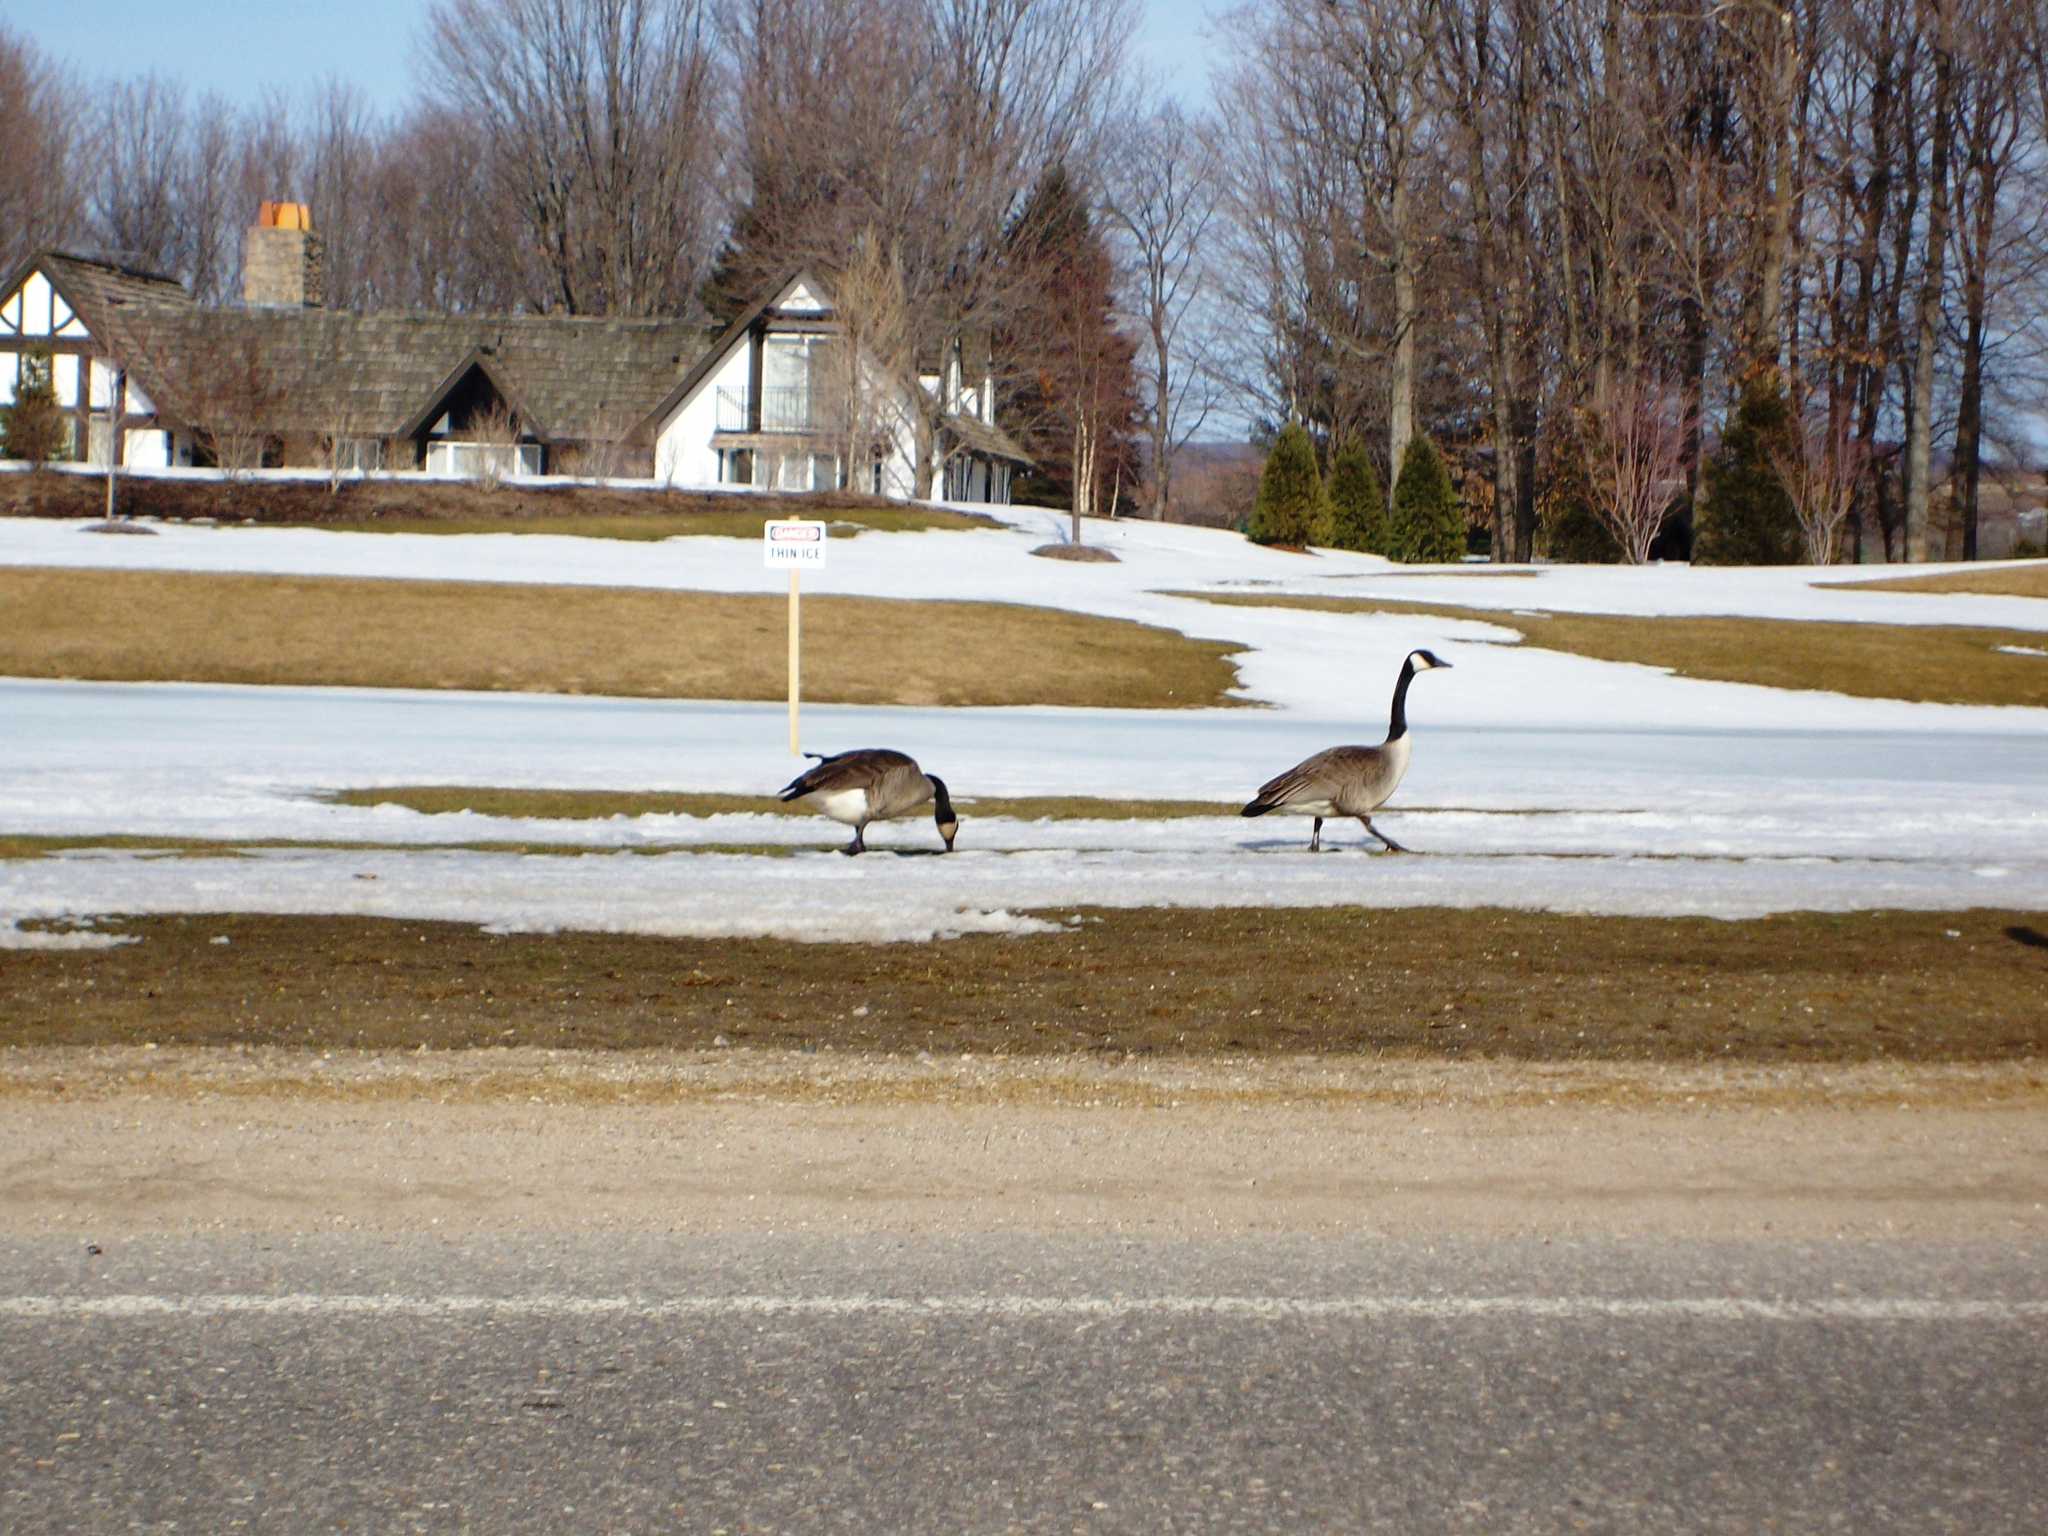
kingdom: Animalia
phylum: Chordata
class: Aves
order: Anseriformes
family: Anatidae
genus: Branta
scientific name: Branta canadensis
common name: Canada goose
